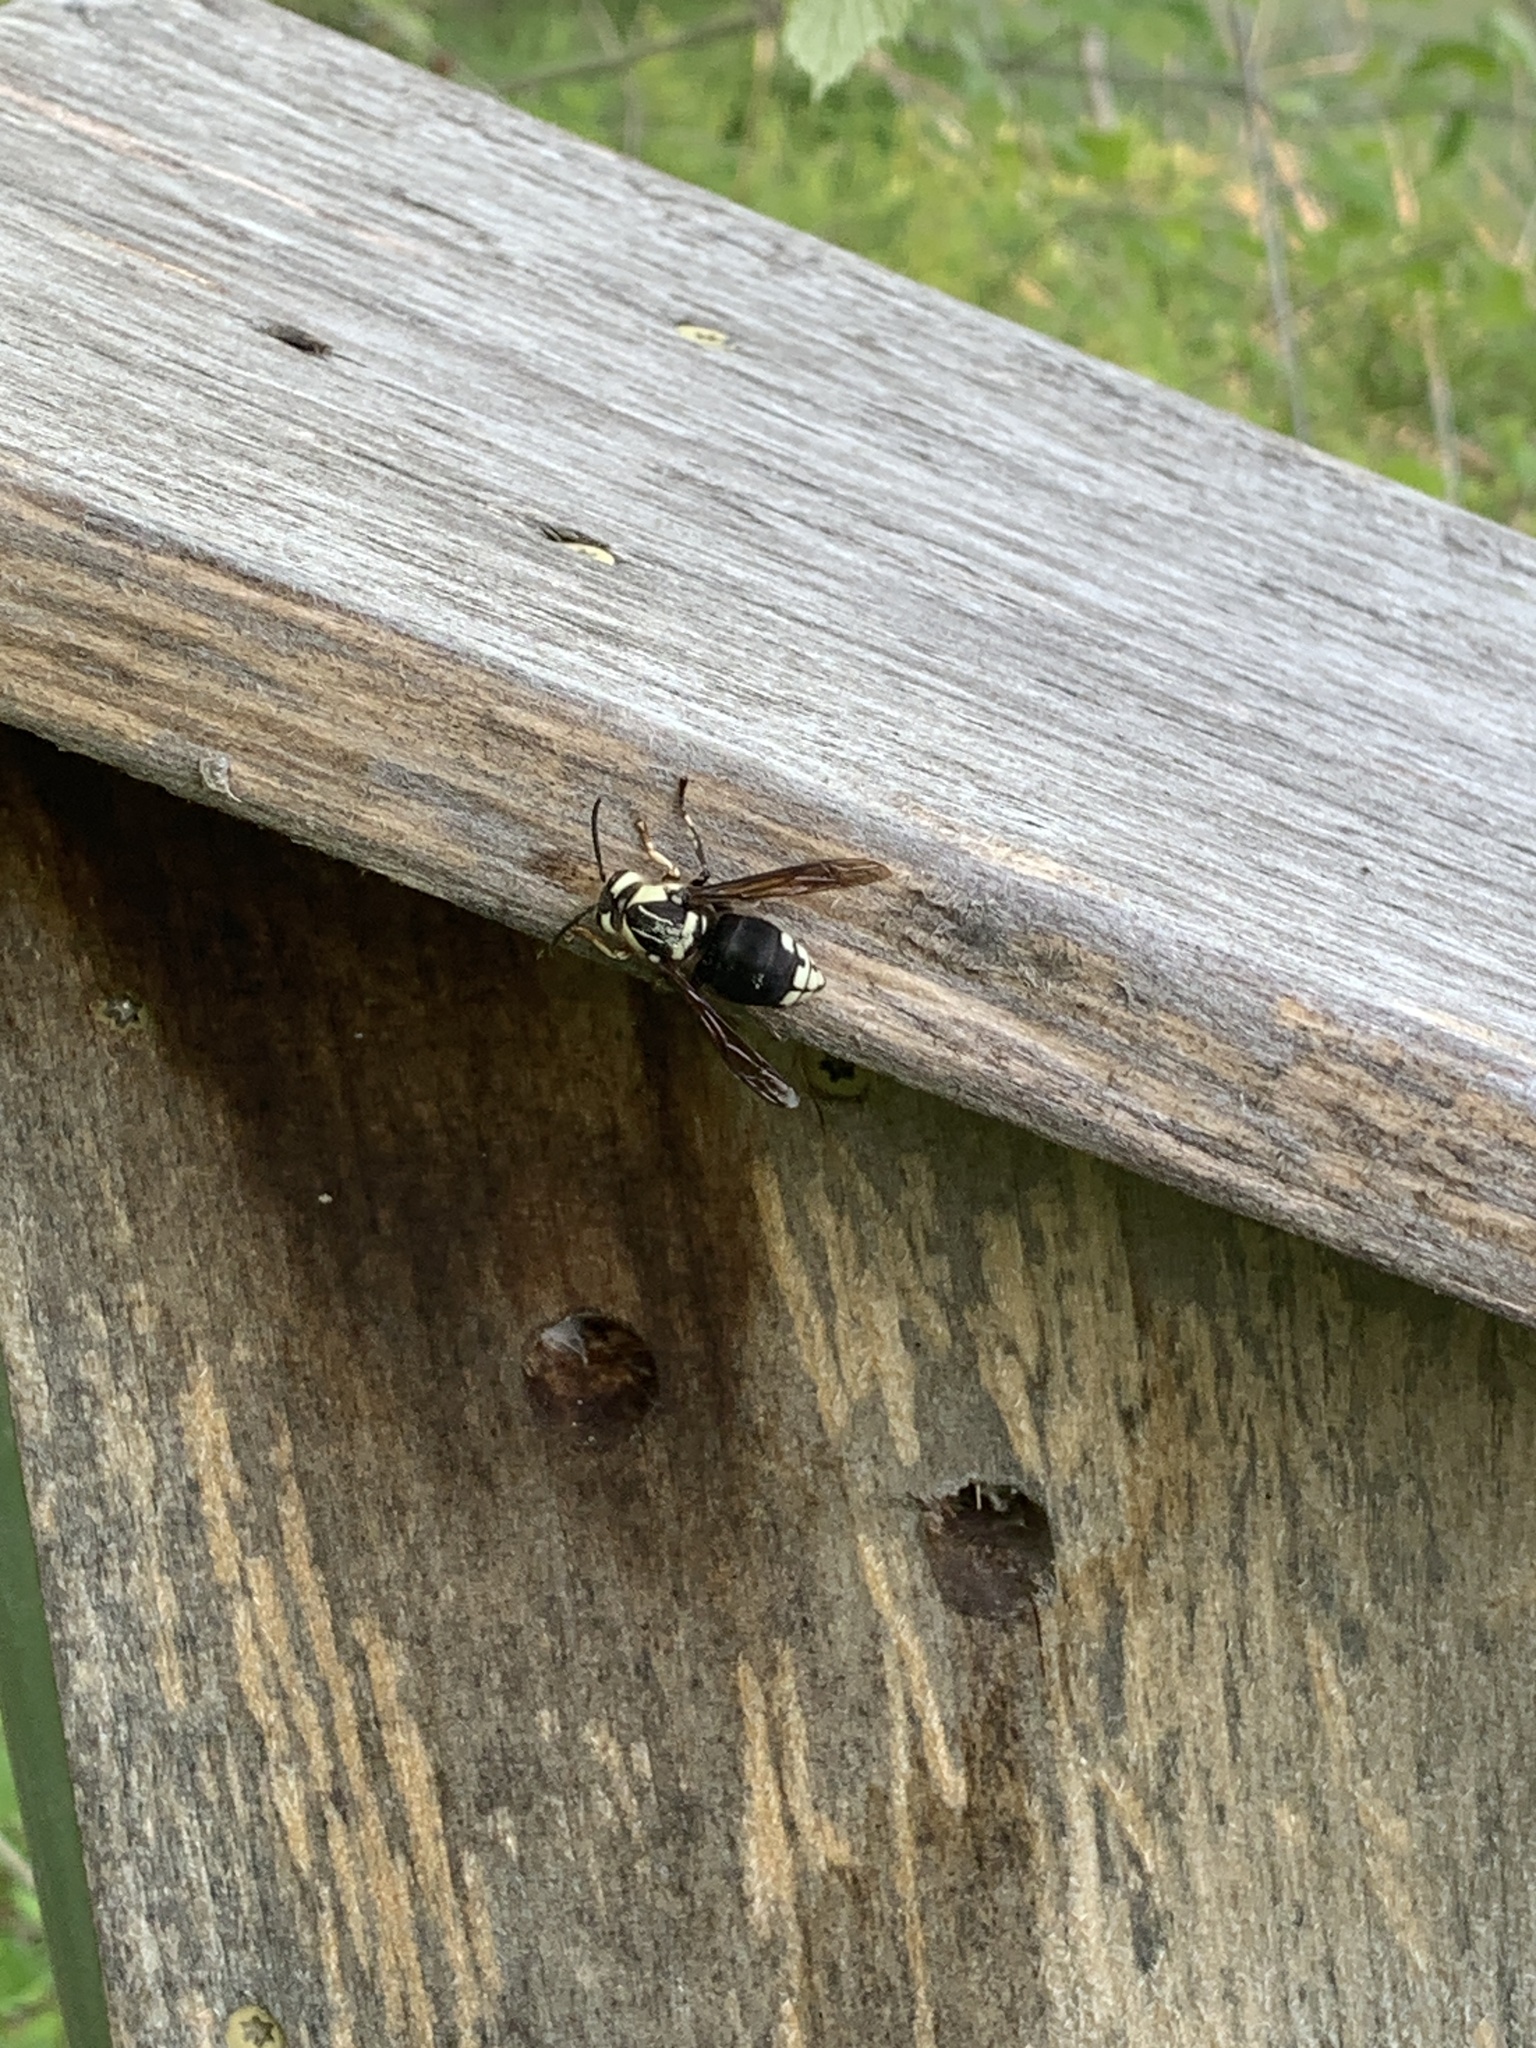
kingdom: Animalia
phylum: Arthropoda
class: Insecta
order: Hymenoptera
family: Vespidae
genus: Dolichovespula
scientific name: Dolichovespula maculata
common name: Bald-faced hornet
